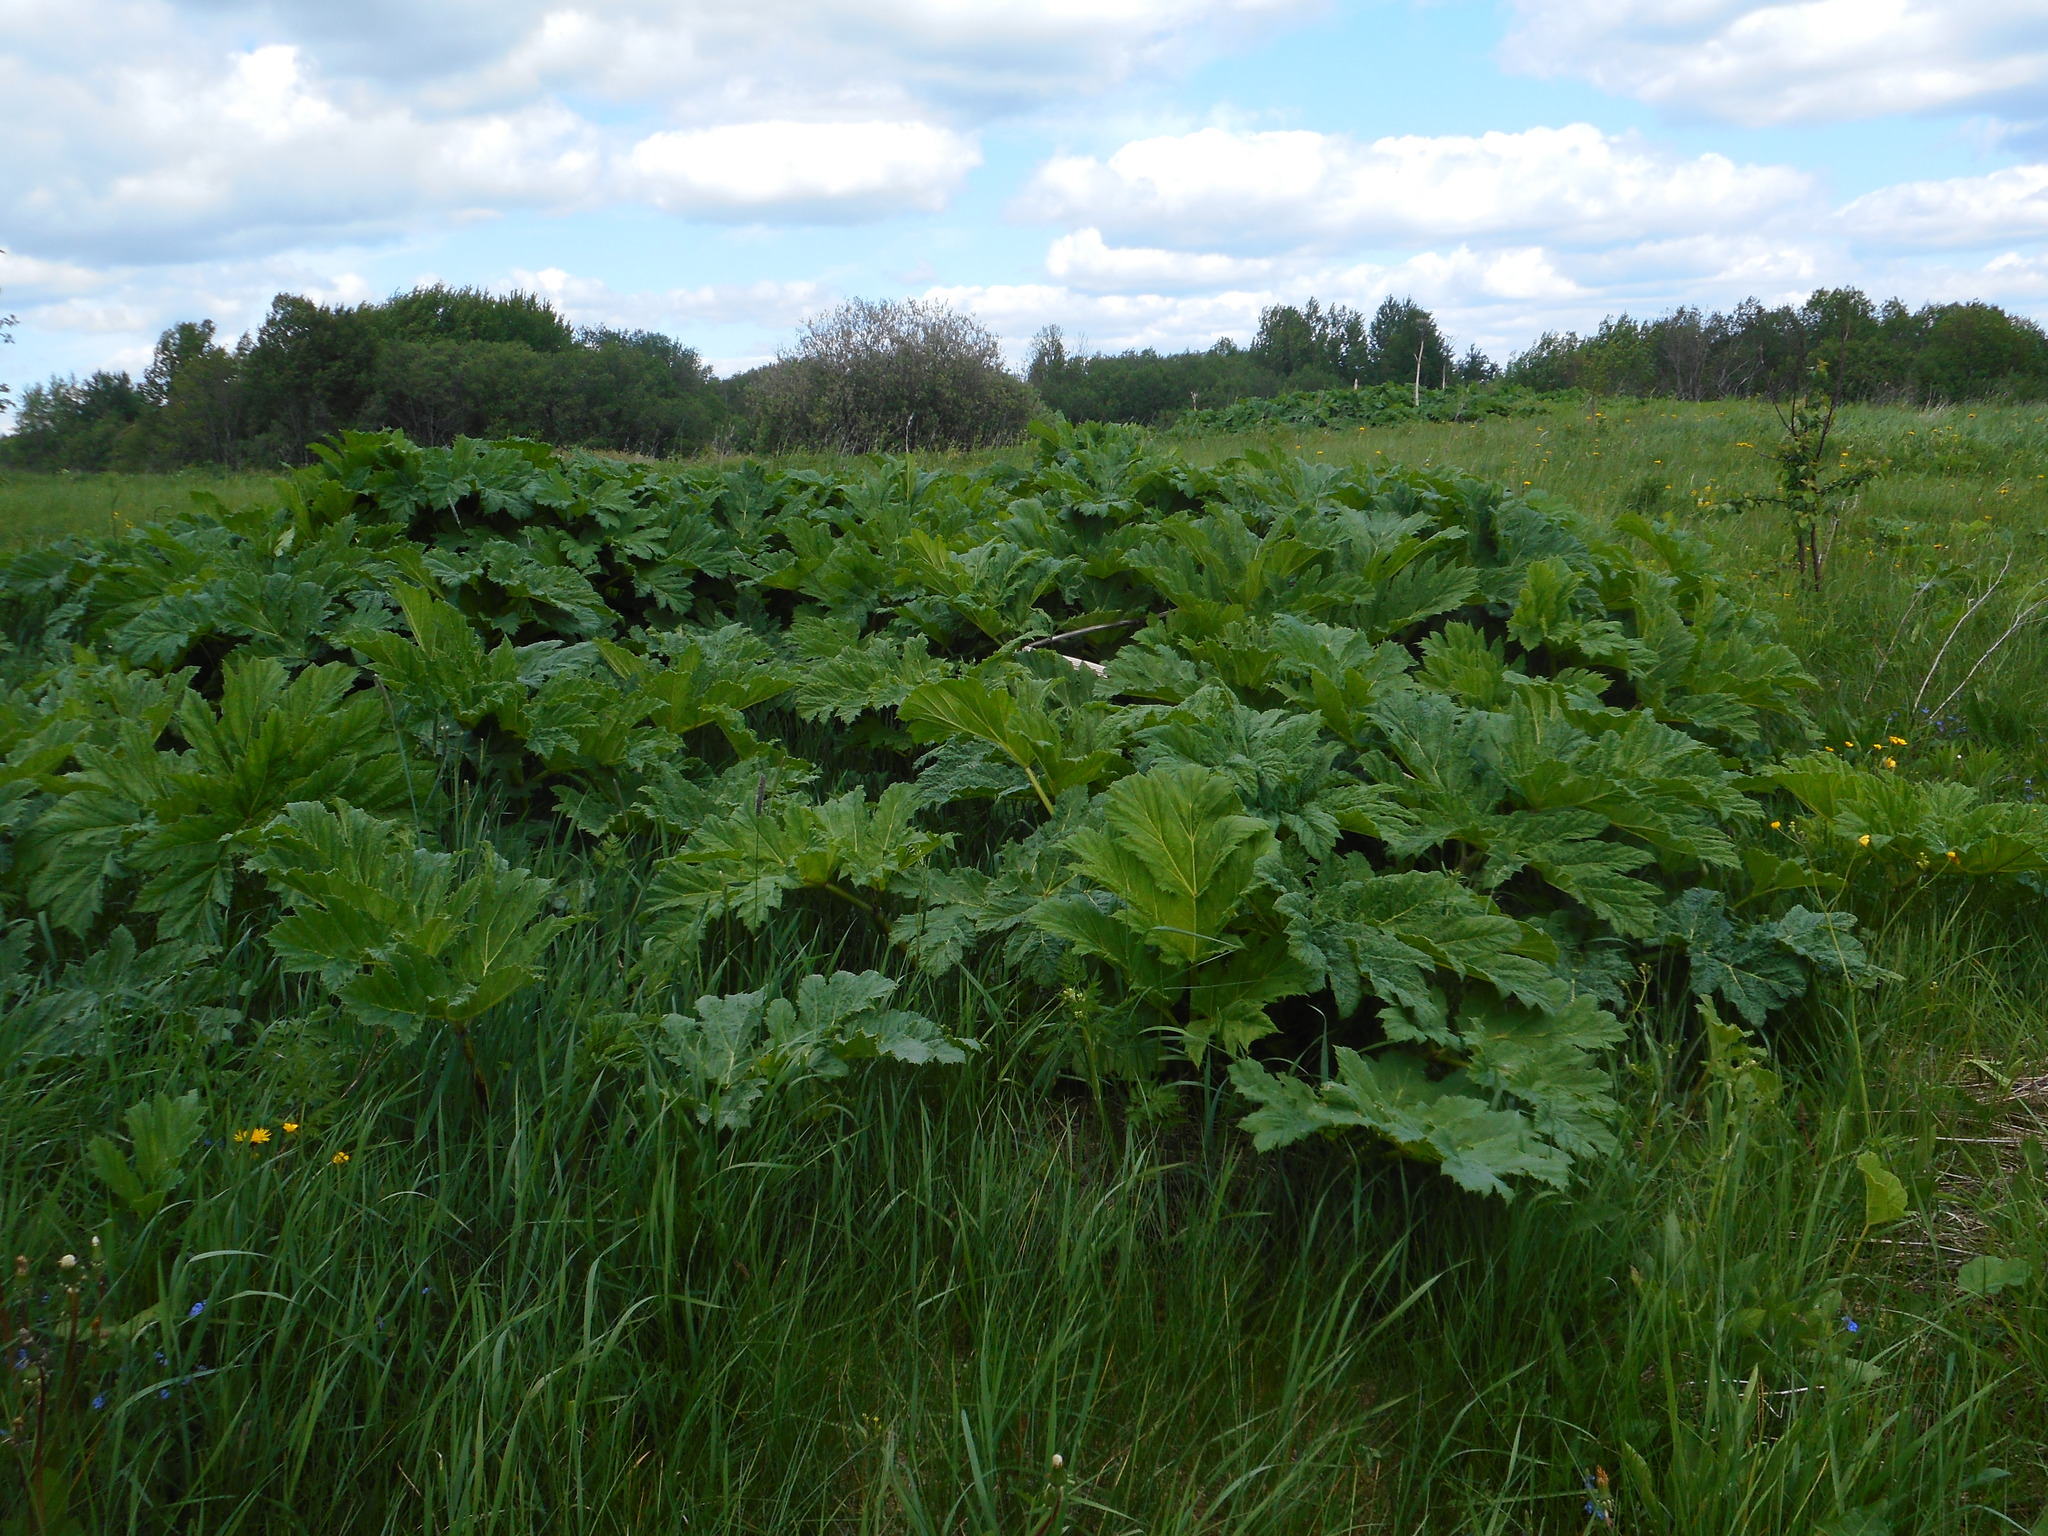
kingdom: Plantae
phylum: Tracheophyta
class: Magnoliopsida
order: Apiales
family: Apiaceae
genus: Heracleum
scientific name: Heracleum sosnowskyi
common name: Sosnowsky's hogweed
